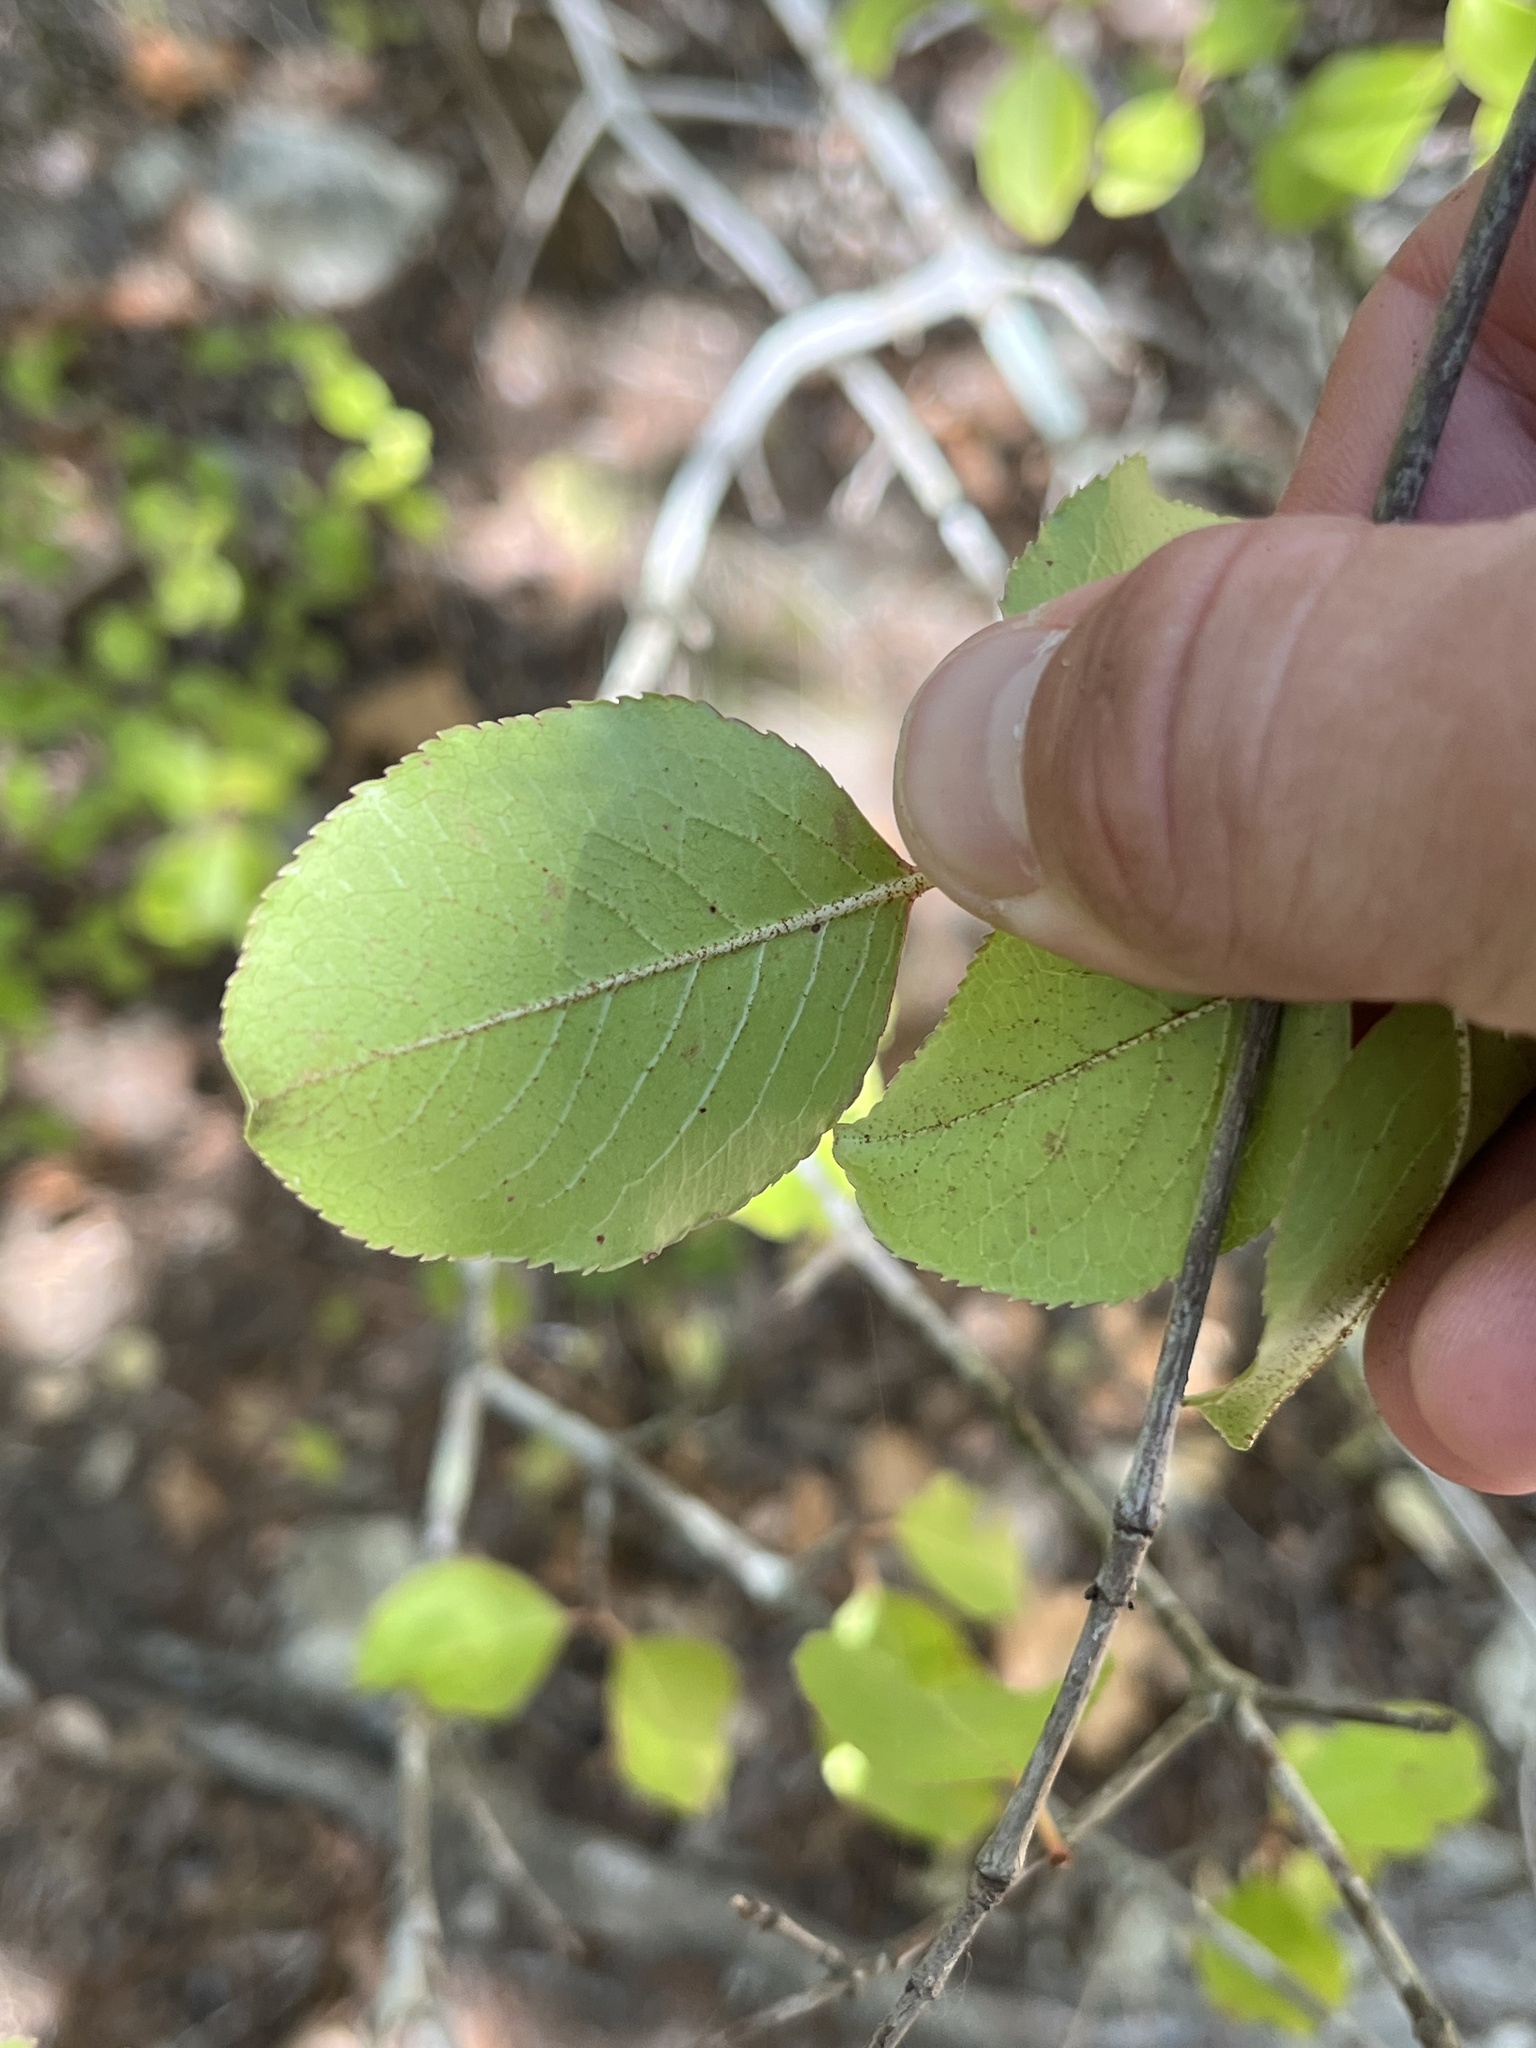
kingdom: Plantae
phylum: Tracheophyta
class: Magnoliopsida
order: Dipsacales
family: Viburnaceae
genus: Viburnum
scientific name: Viburnum rufidulum
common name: Blue haw
